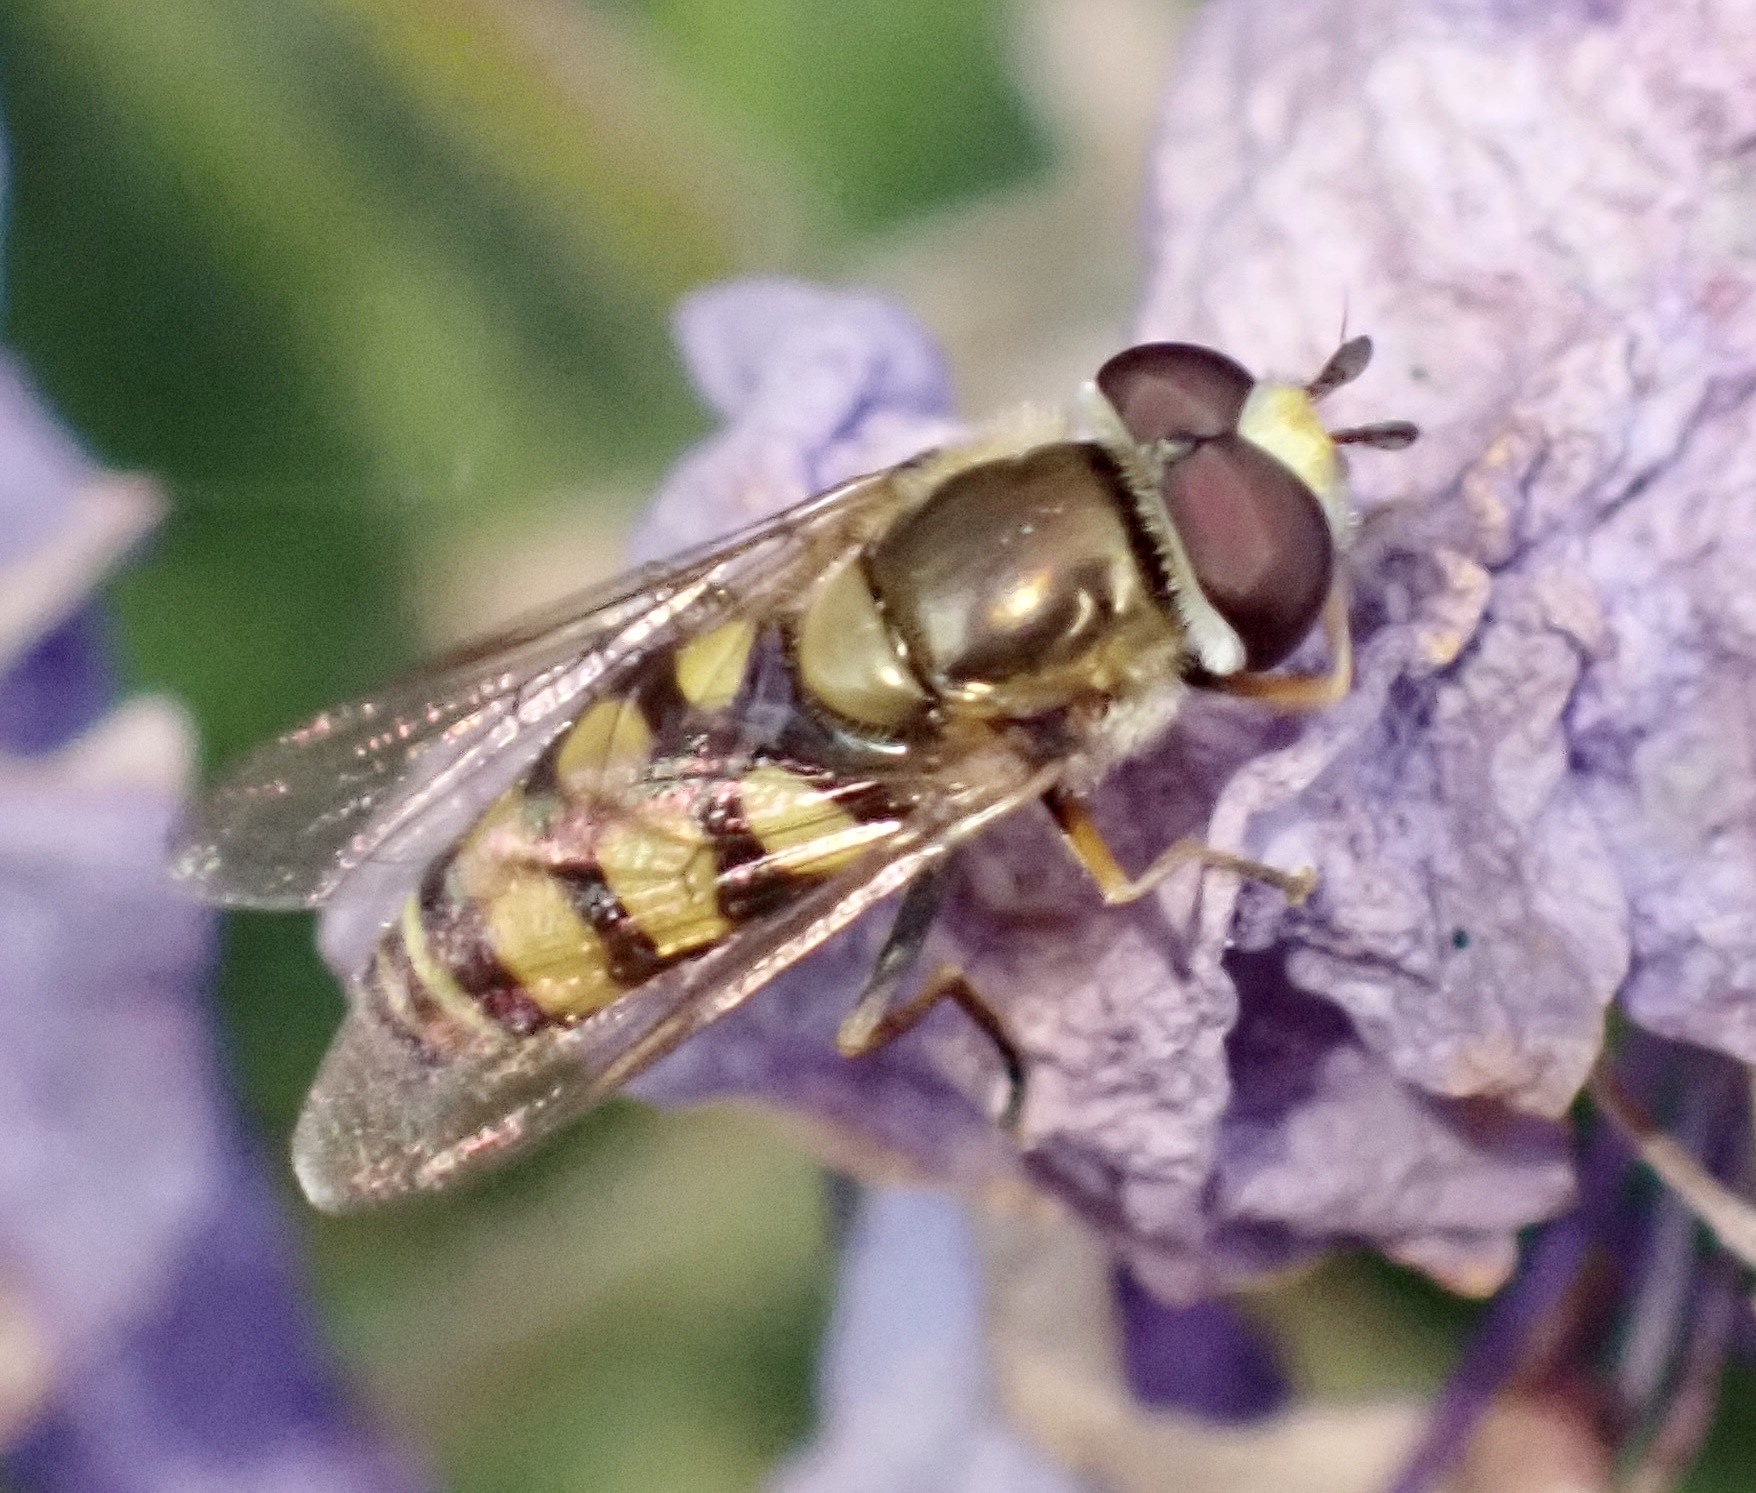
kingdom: Animalia
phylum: Arthropoda
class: Insecta
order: Diptera
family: Syrphidae
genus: Eupeodes
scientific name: Eupeodes corollae
